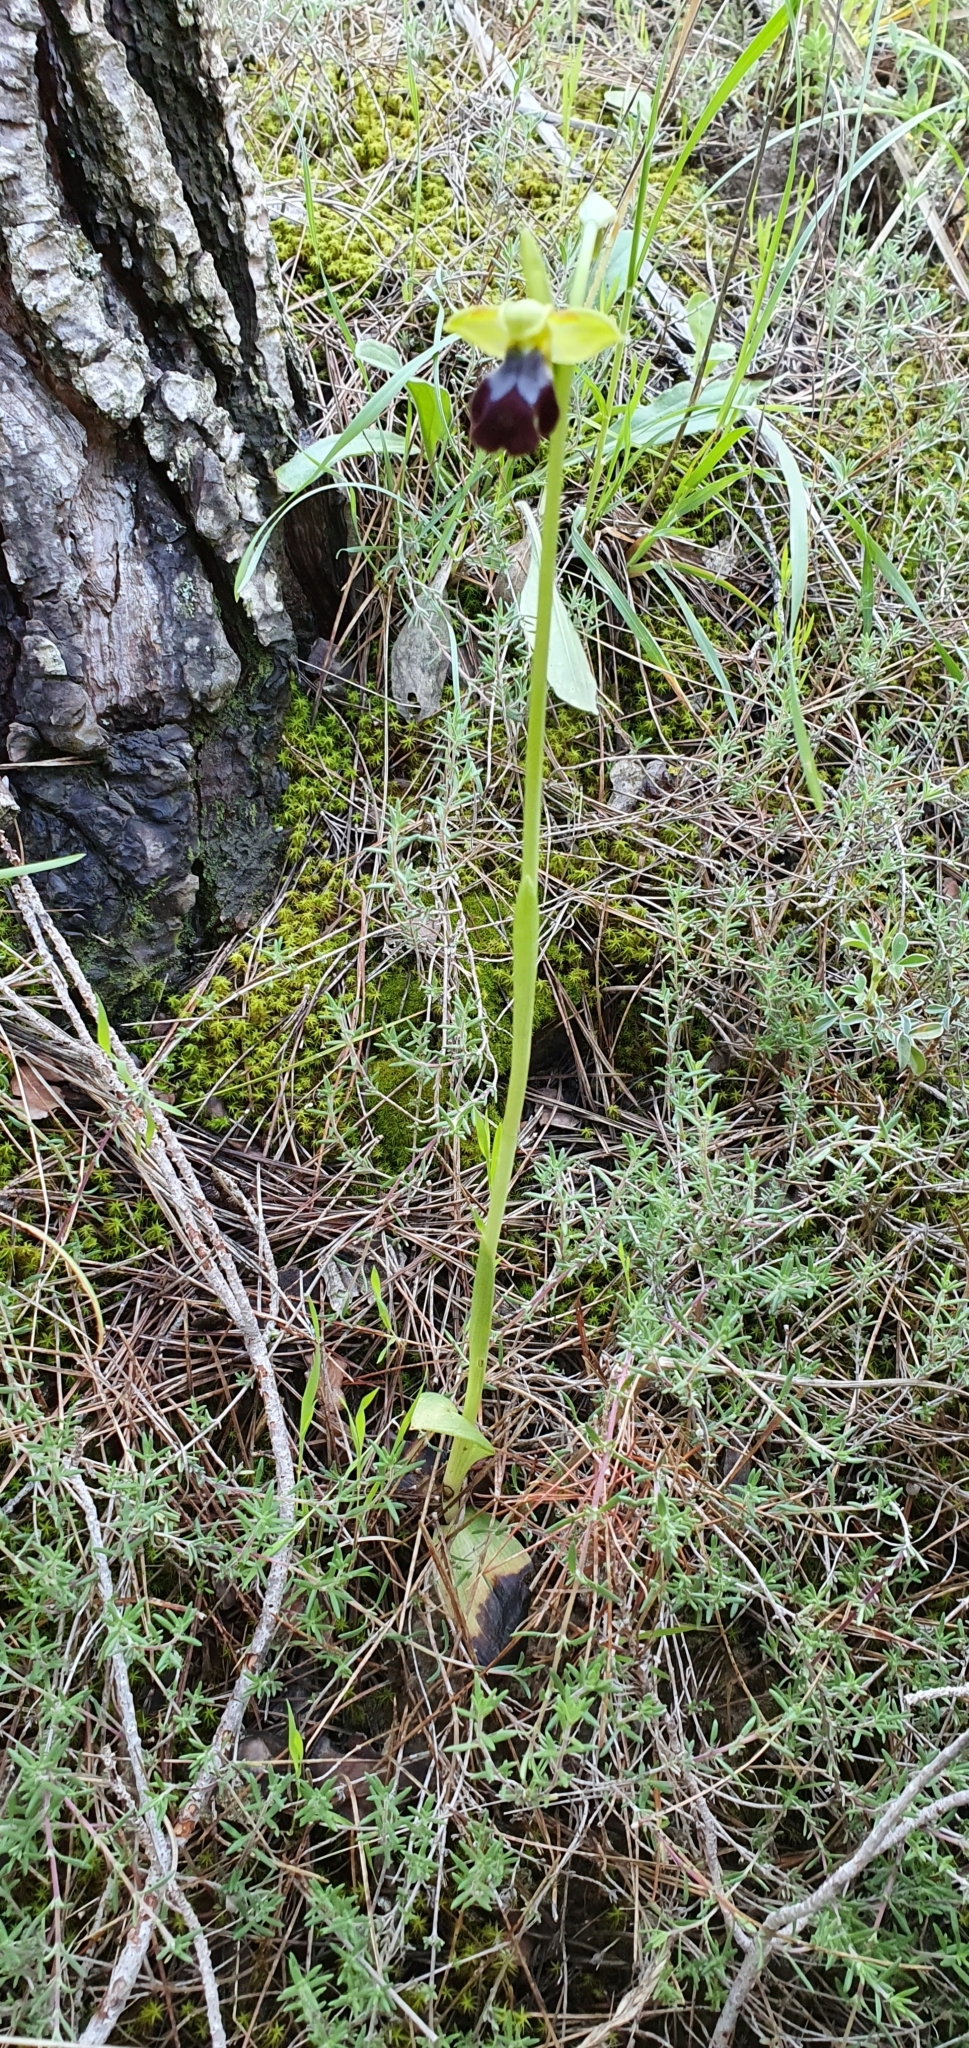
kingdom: Plantae
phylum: Tracheophyta
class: Liliopsida
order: Asparagales
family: Orchidaceae
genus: Ophrys
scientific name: Ophrys fusca
